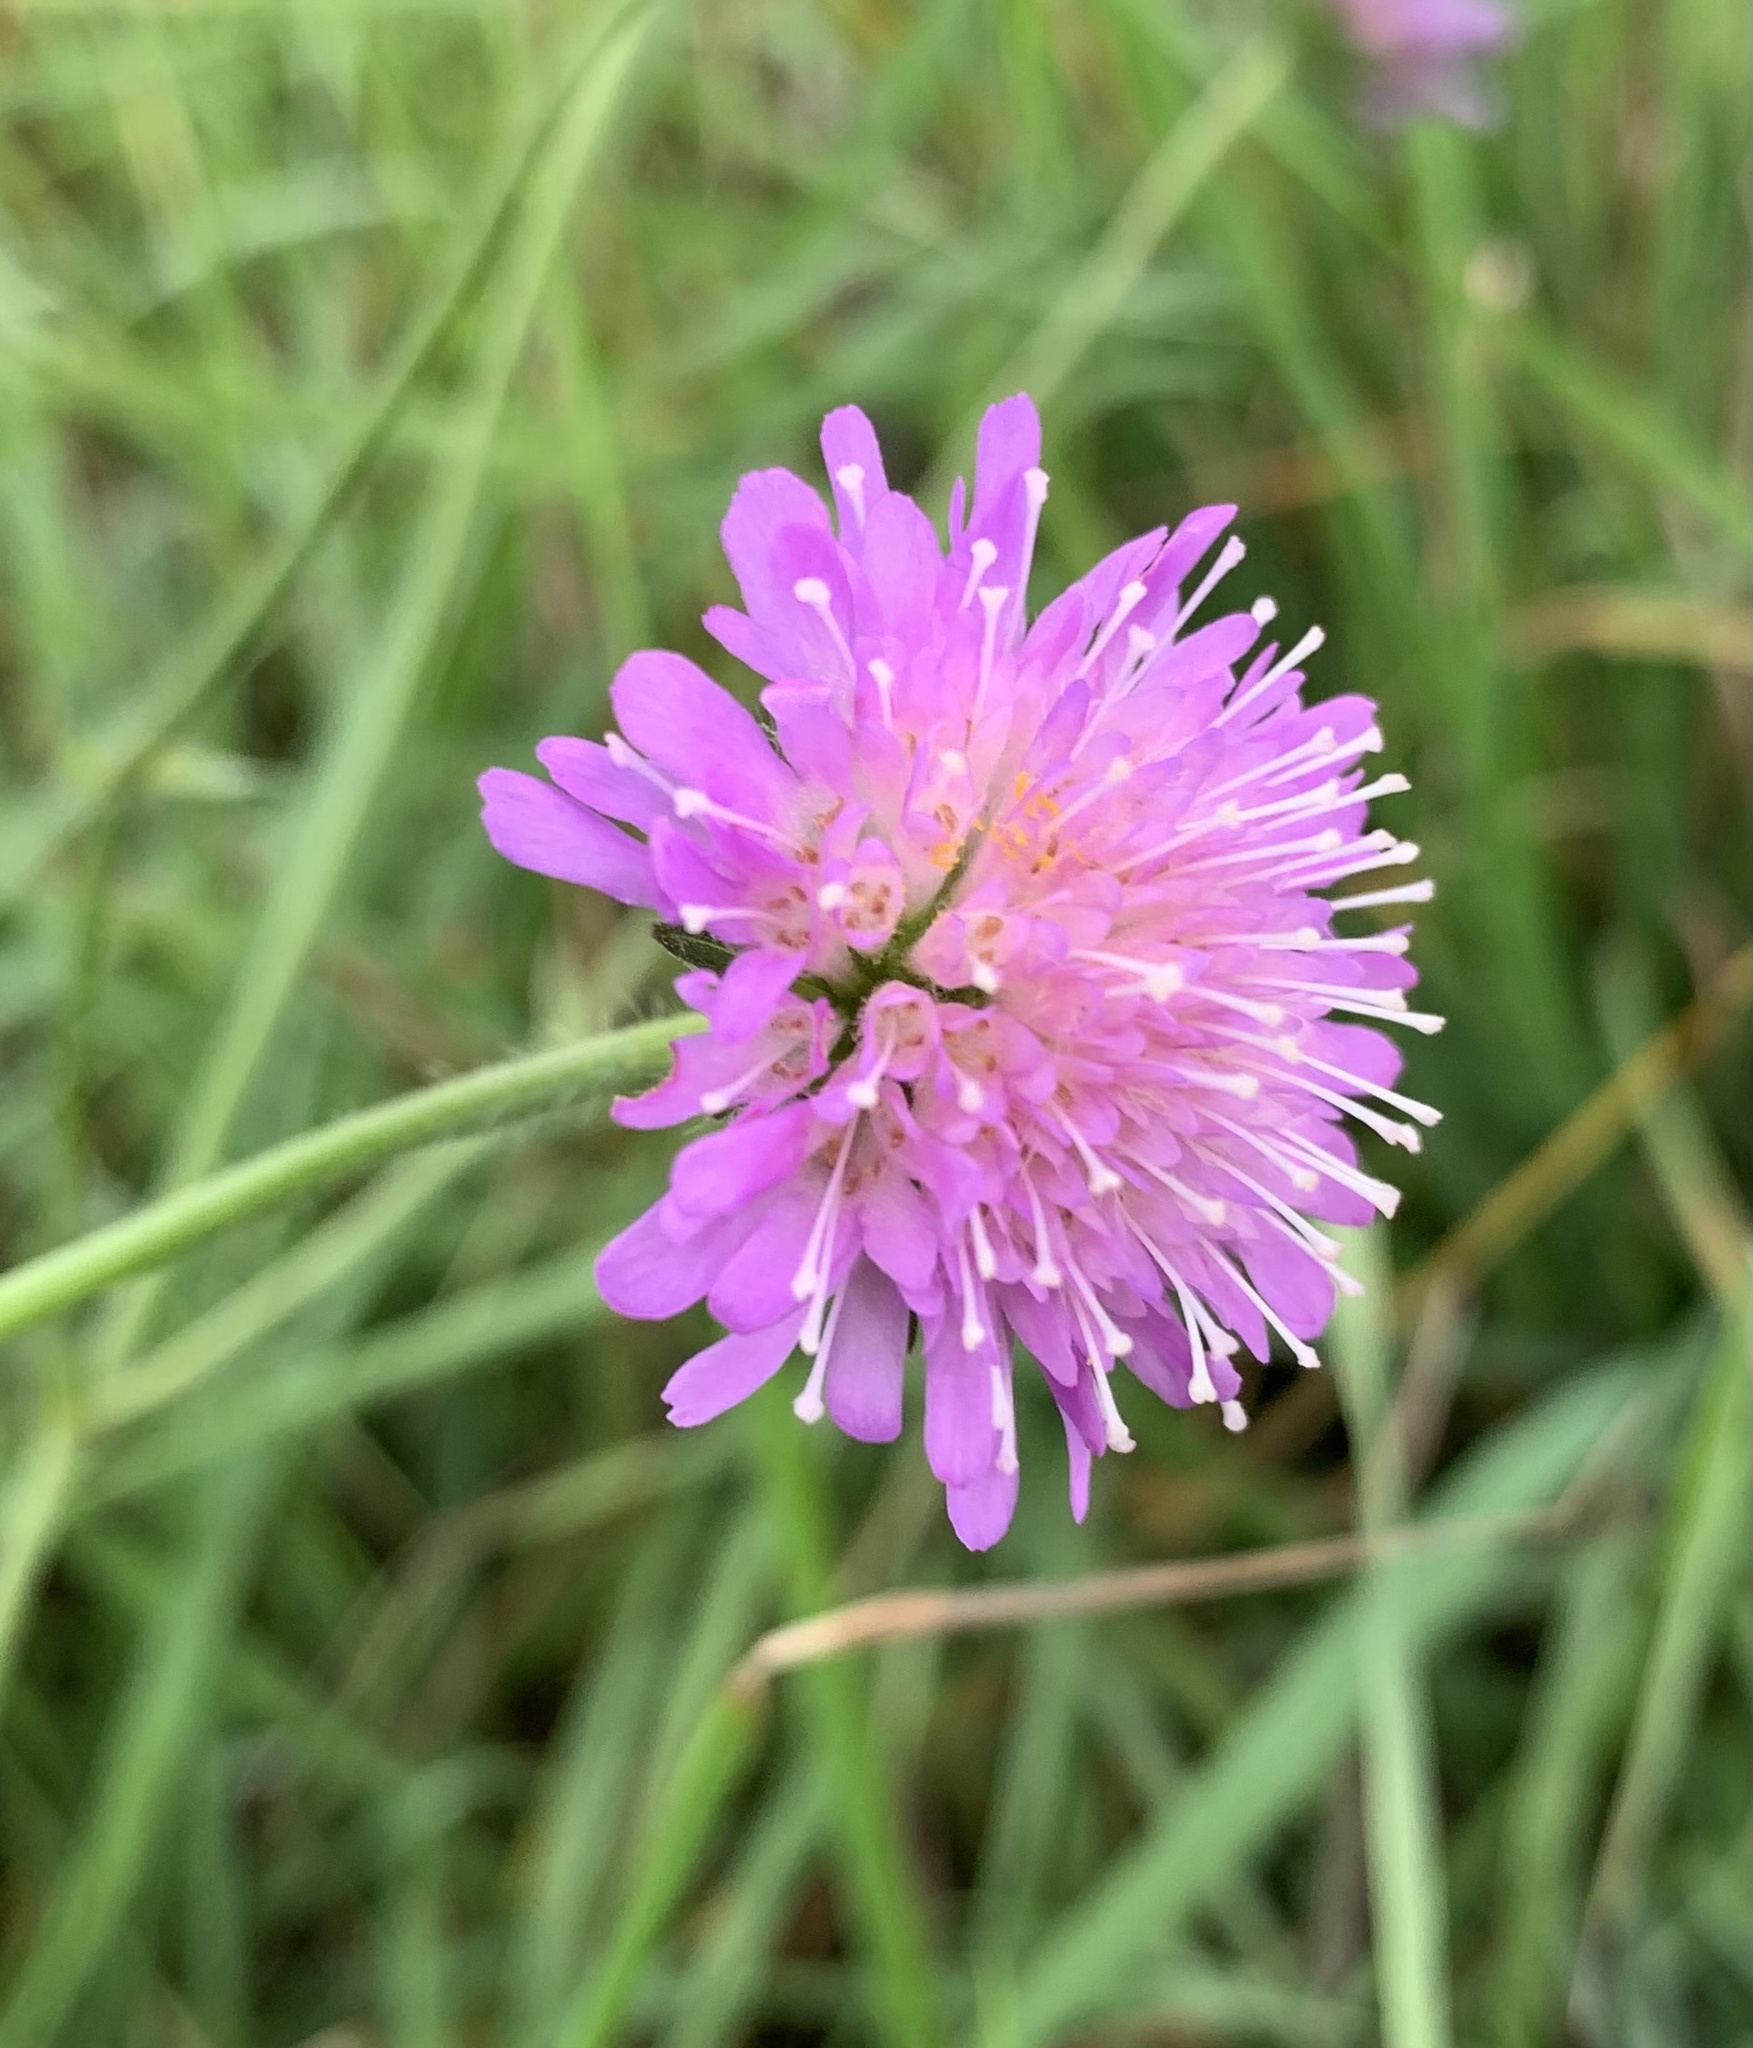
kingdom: Plantae
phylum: Tracheophyta
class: Magnoliopsida
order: Dipsacales
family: Caprifoliaceae
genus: Knautia
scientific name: Knautia arvensis
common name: Field scabiosa
